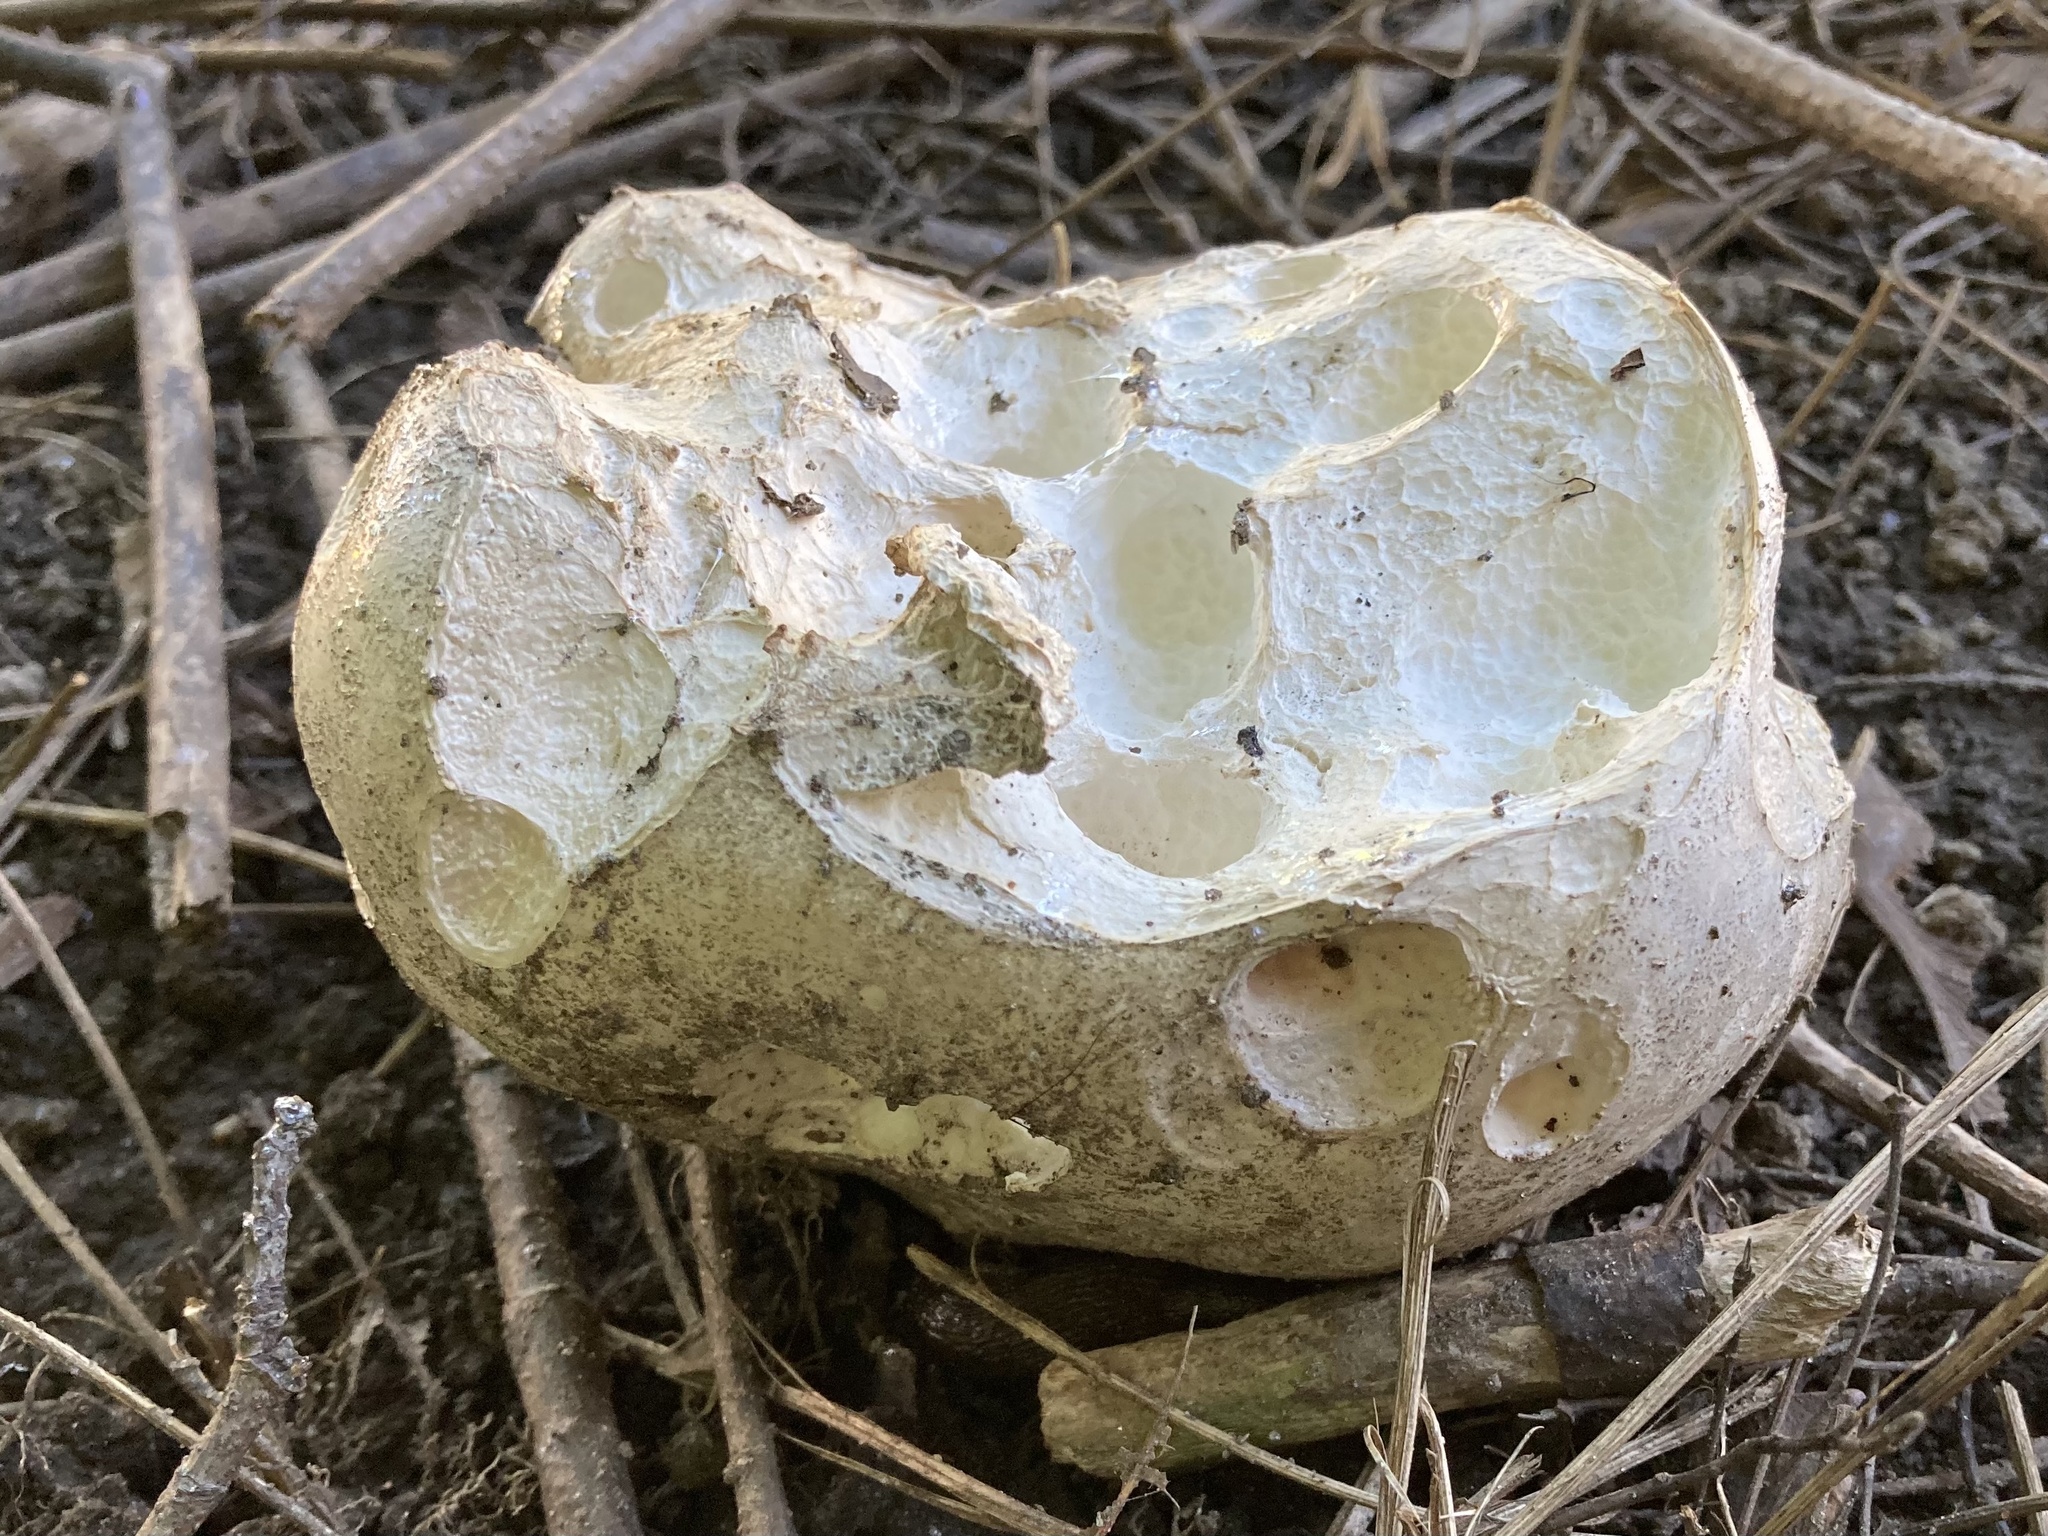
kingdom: Fungi
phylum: Basidiomycota
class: Agaricomycetes
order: Agaricales
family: Lycoperdaceae
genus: Calvatia
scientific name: Calvatia gigantea
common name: Giant puffball
